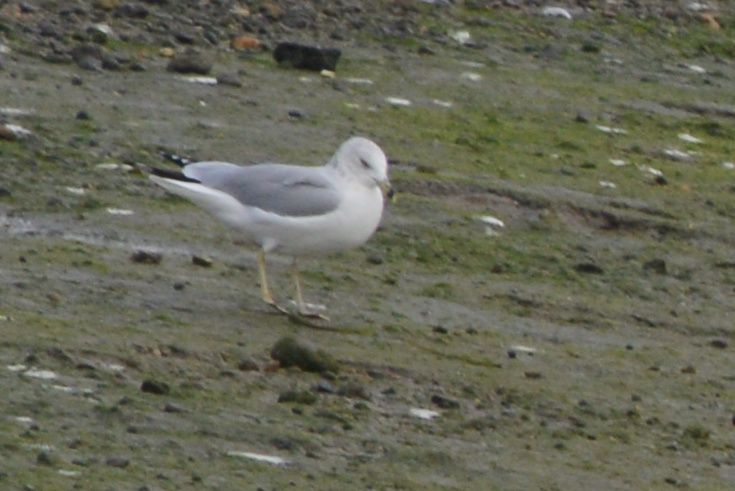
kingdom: Animalia
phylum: Chordata
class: Aves
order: Charadriiformes
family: Laridae
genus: Larus
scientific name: Larus delawarensis
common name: Ring-billed gull
